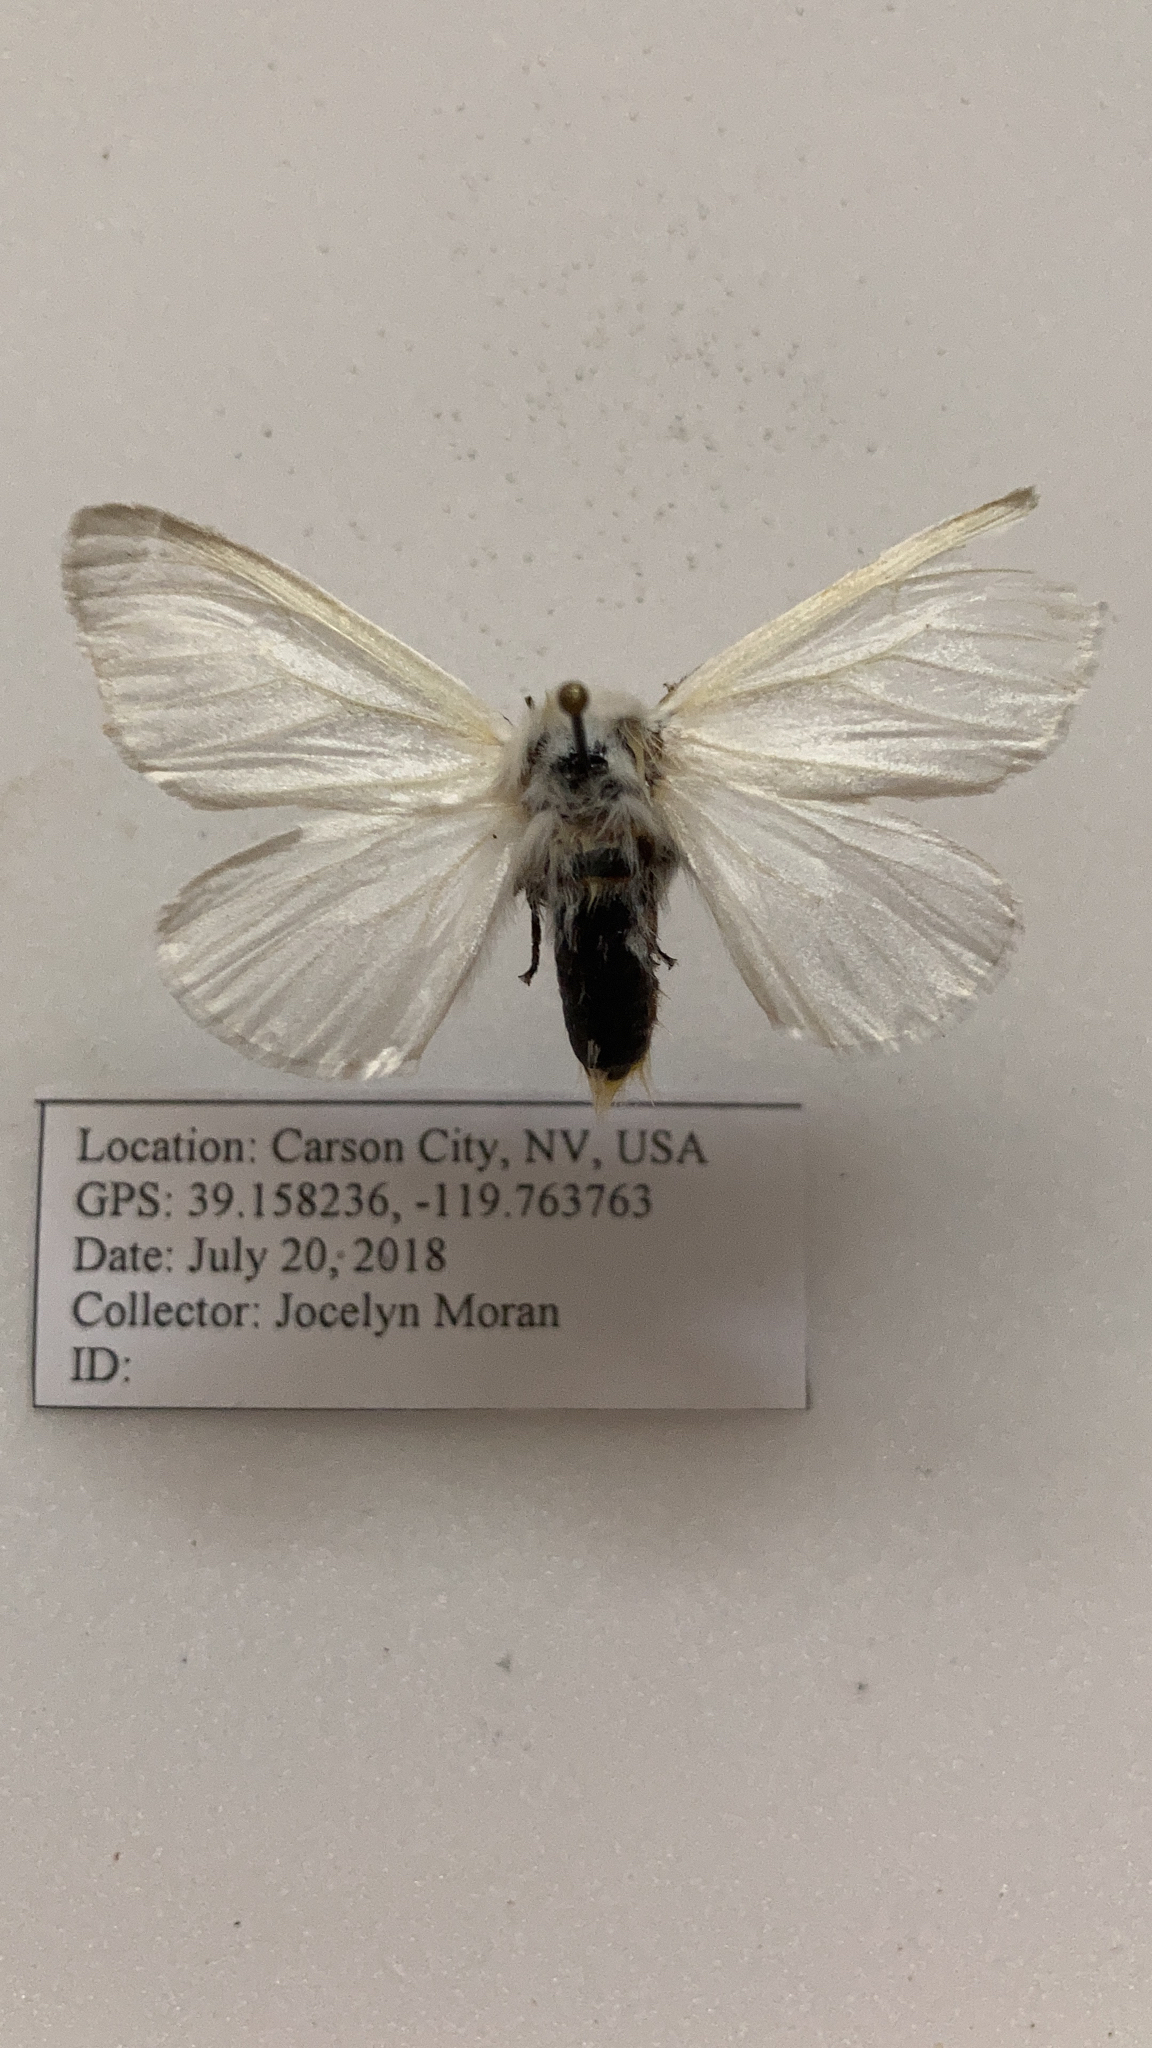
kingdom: Animalia
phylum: Arthropoda
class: Insecta
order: Lepidoptera
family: Erebidae
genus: Leucoma
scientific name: Leucoma salicis
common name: White satin moth
